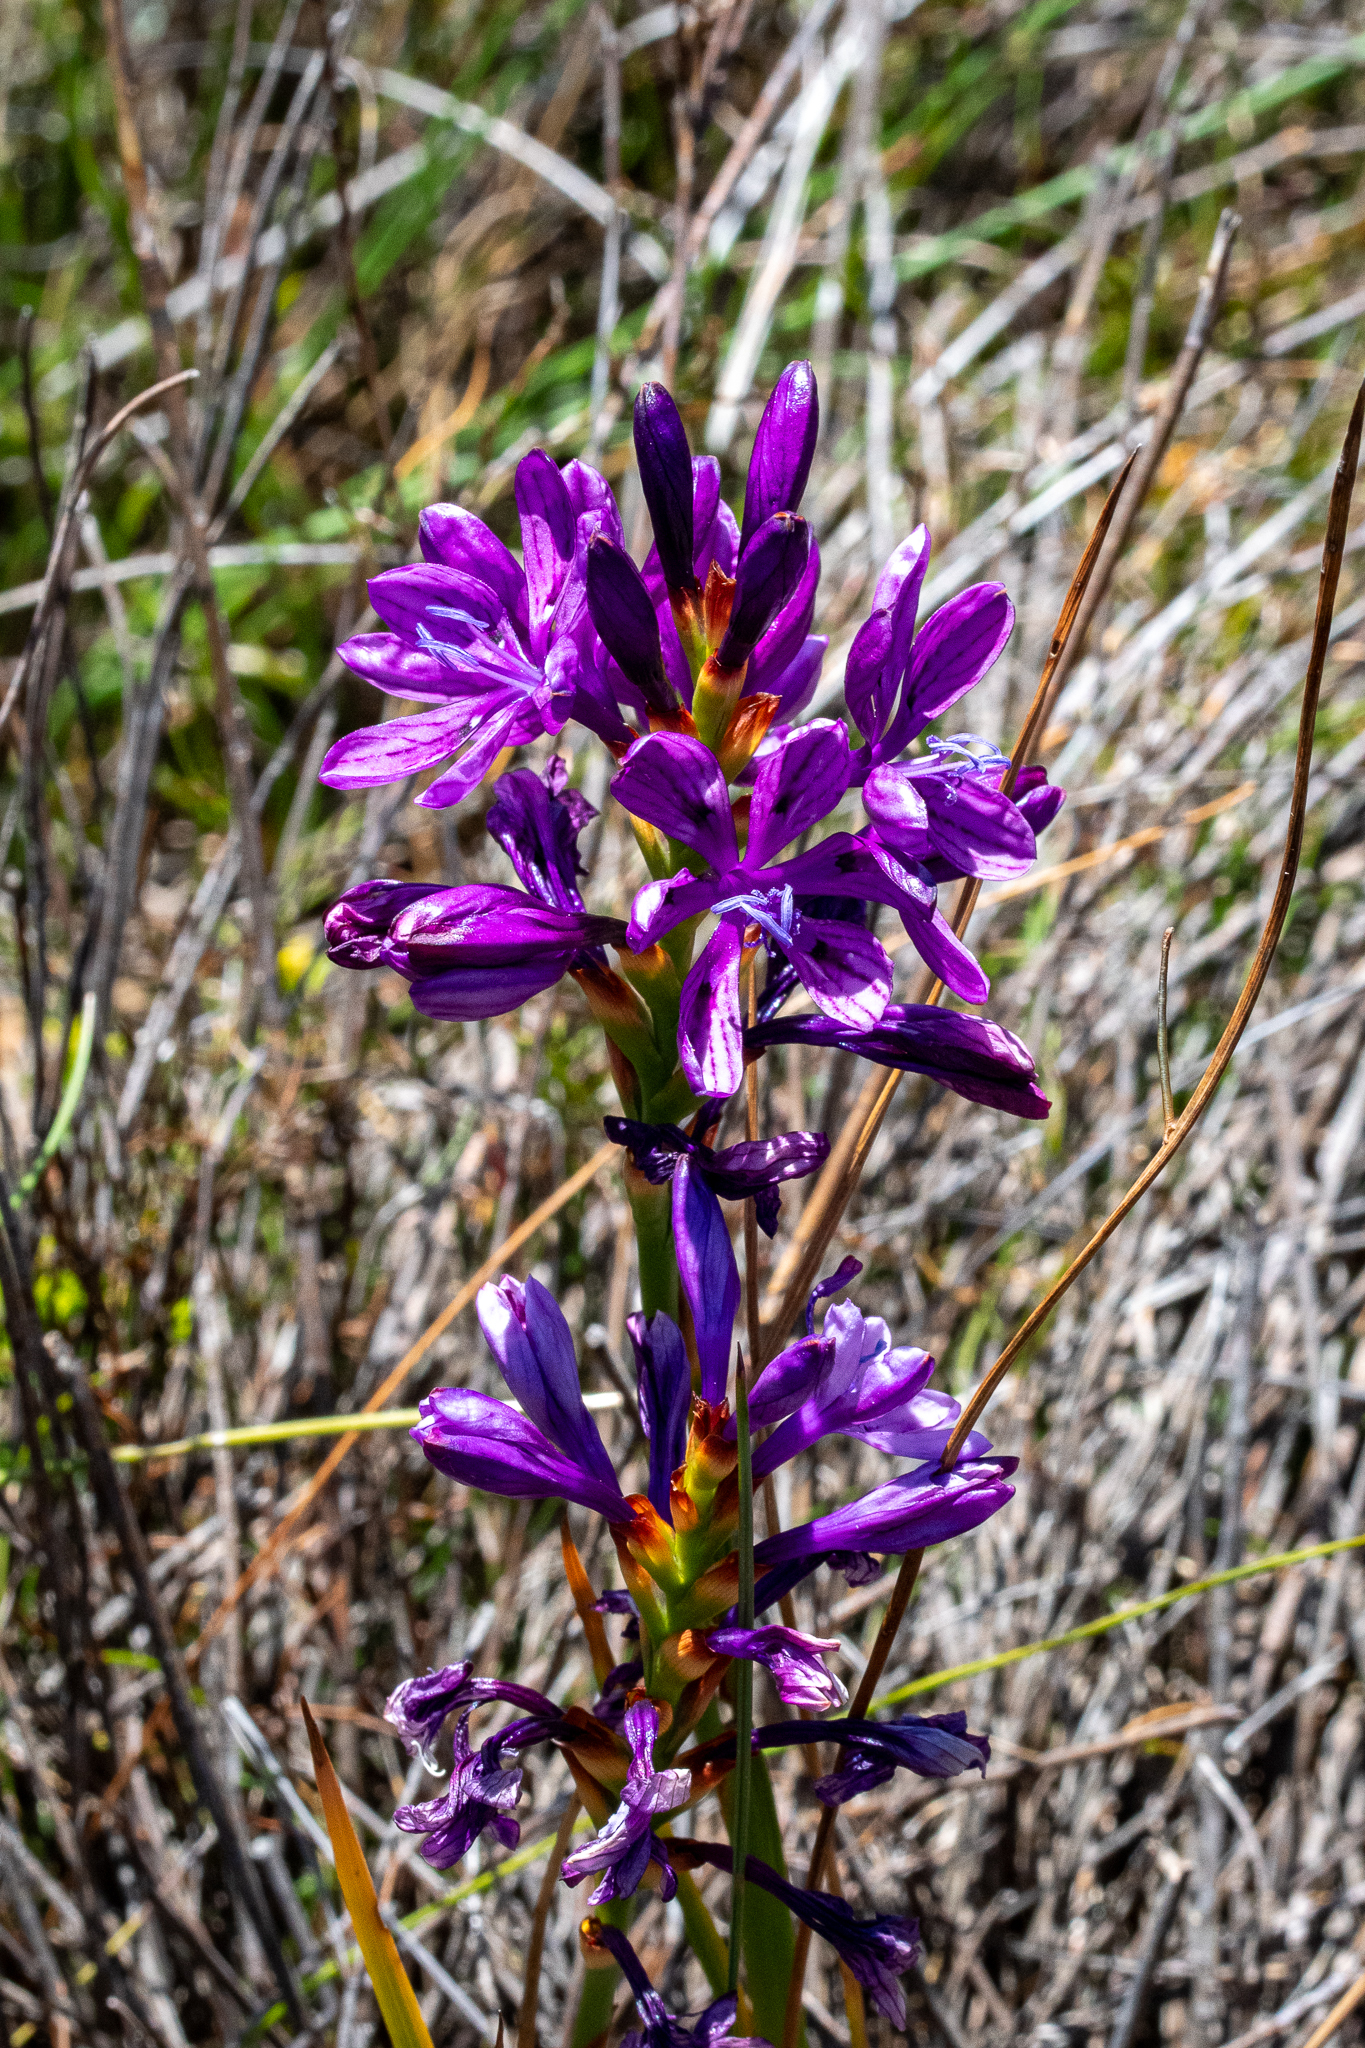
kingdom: Plantae
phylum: Tracheophyta
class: Liliopsida
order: Asparagales
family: Iridaceae
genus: Thereianthus
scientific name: Thereianthus bracteolatus
